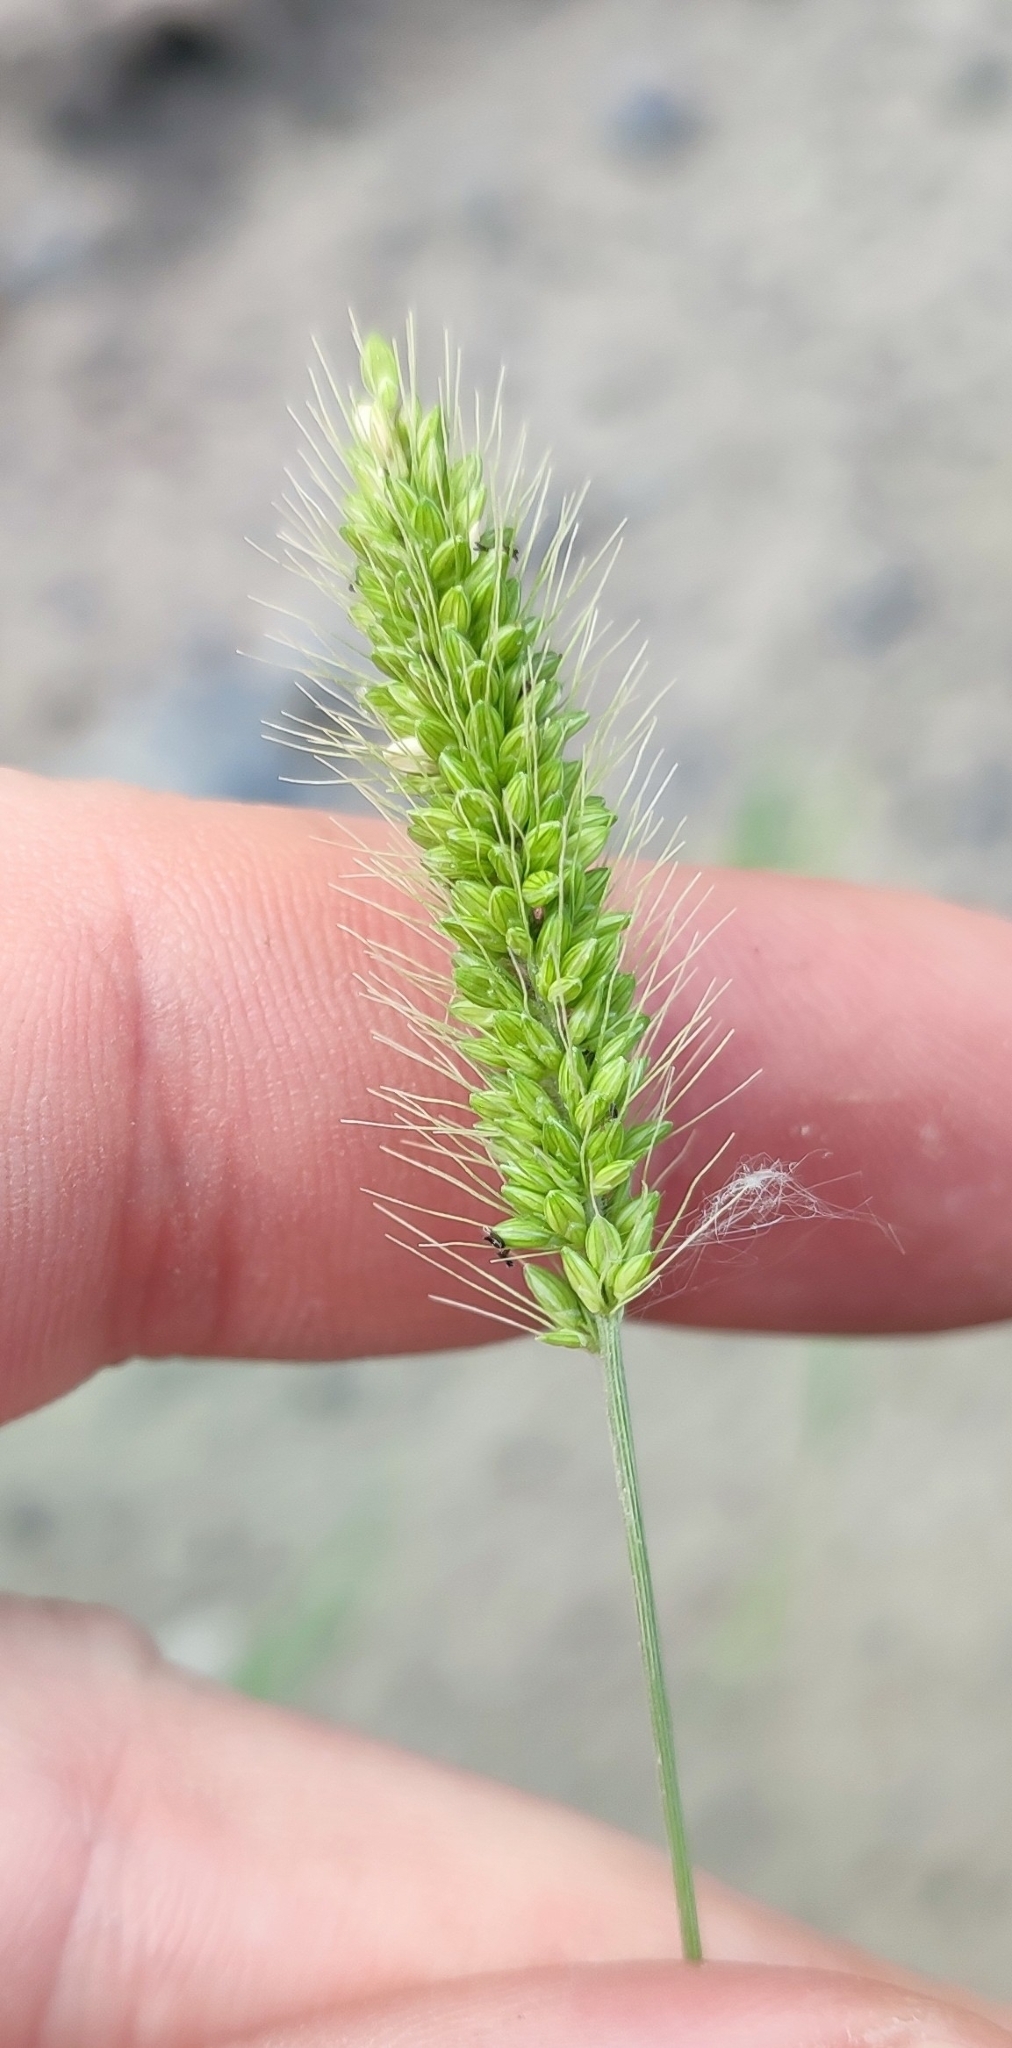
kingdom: Plantae
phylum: Tracheophyta
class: Liliopsida
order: Poales
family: Poaceae
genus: Setaria
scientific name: Setaria viridis
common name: Green bristlegrass
